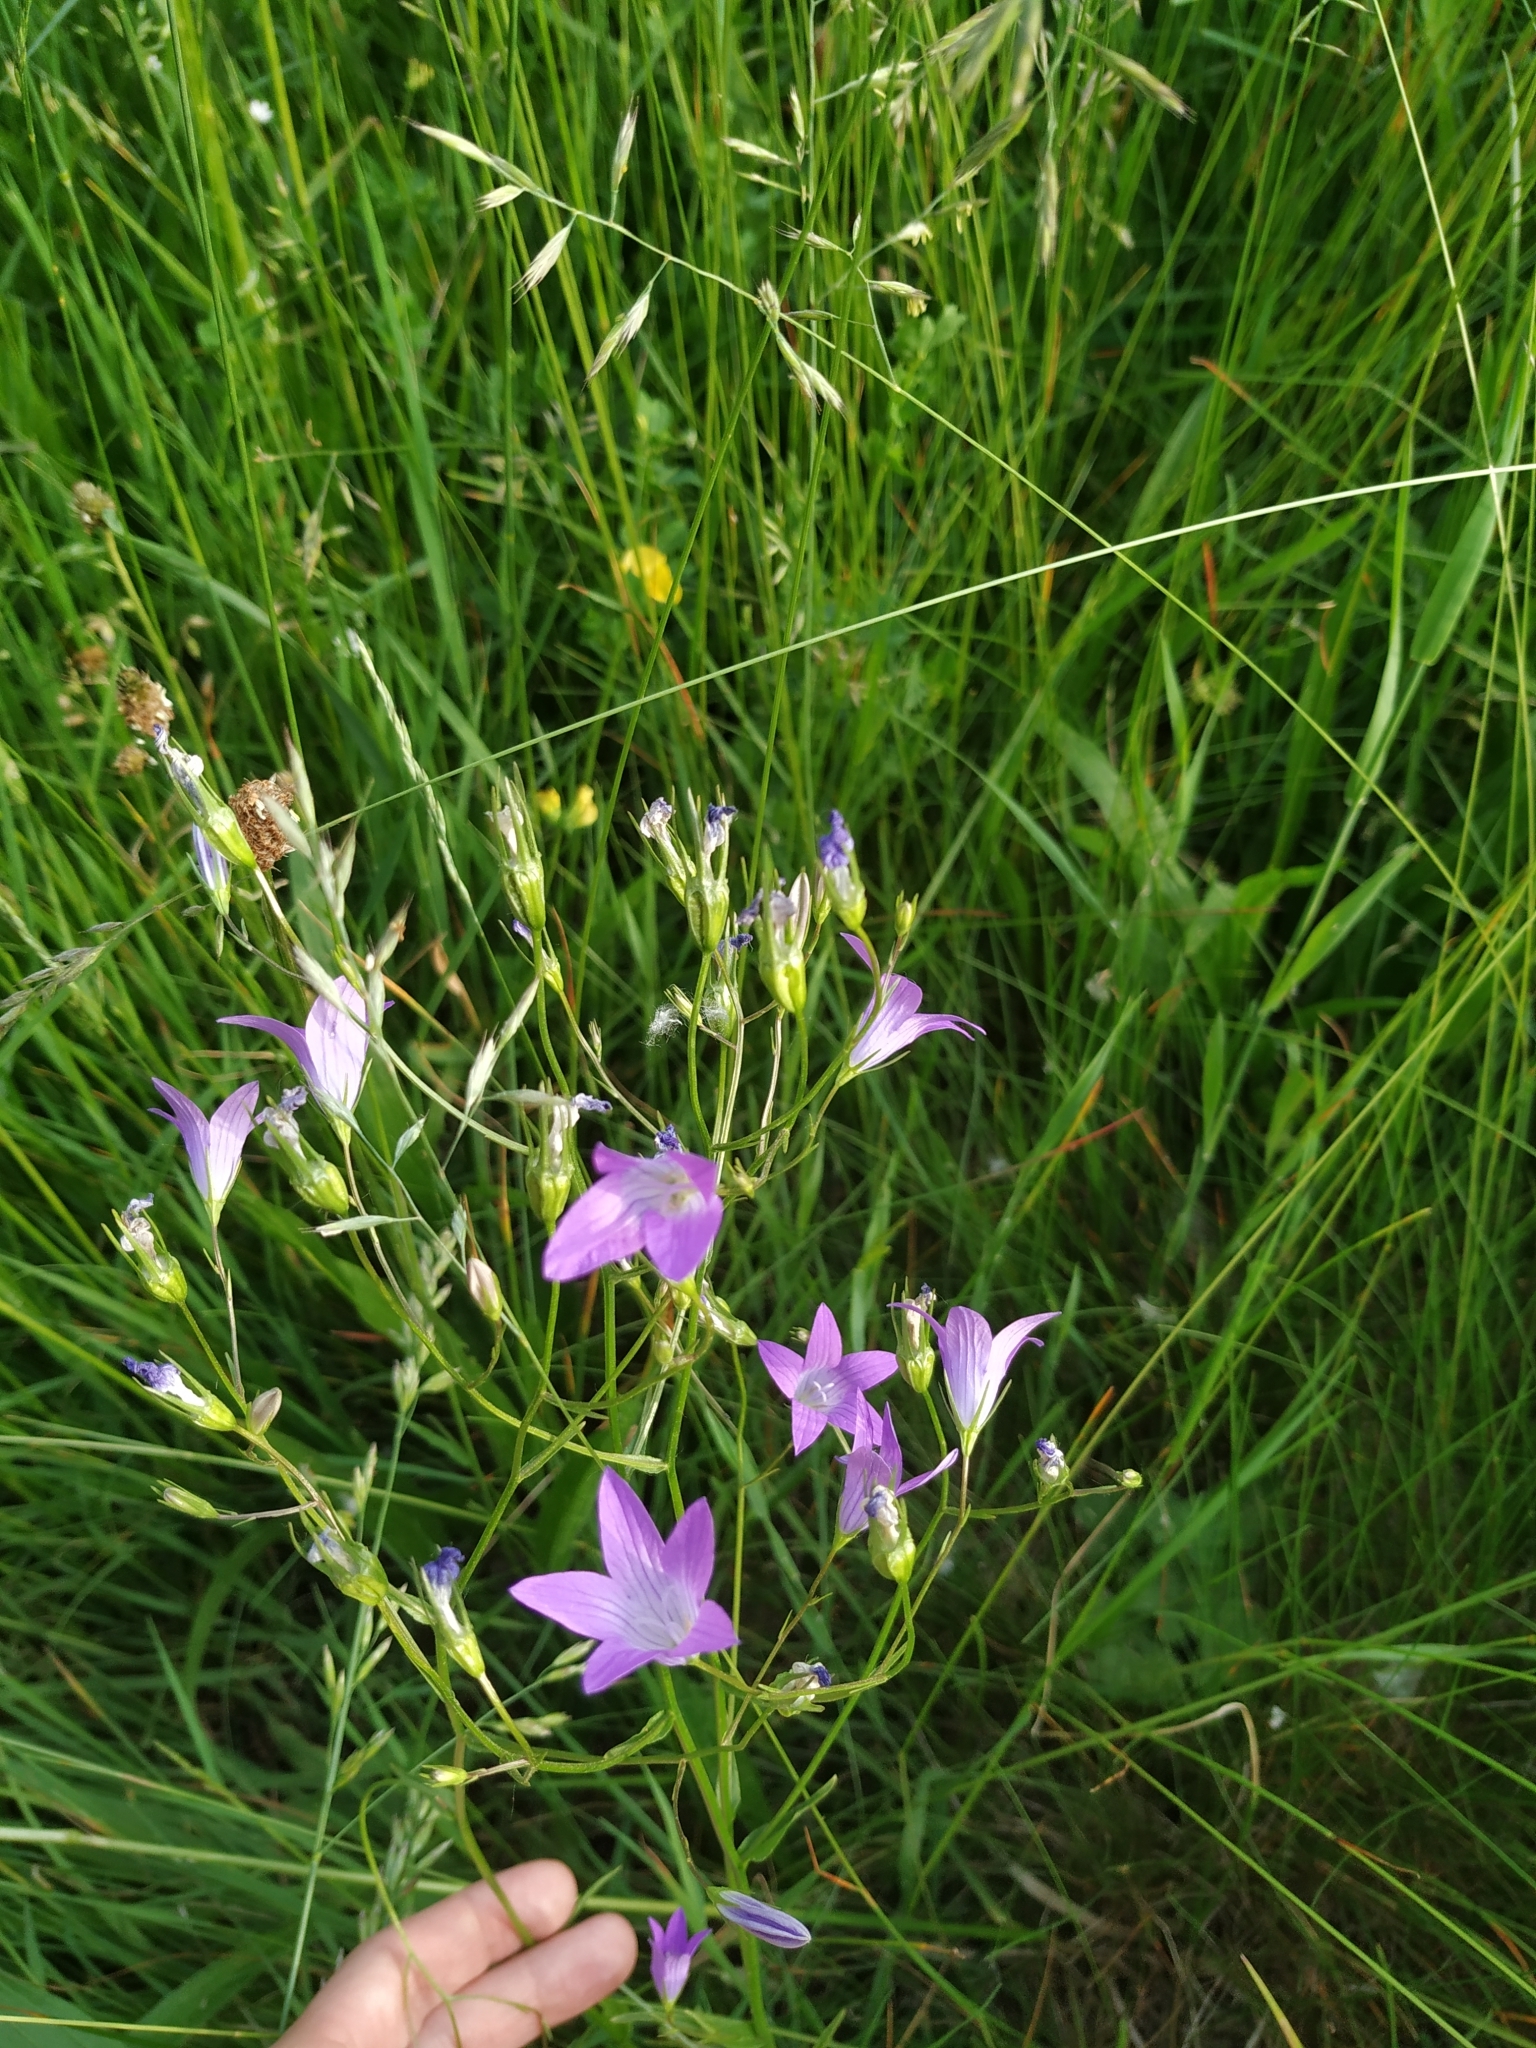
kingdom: Plantae
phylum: Tracheophyta
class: Magnoliopsida
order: Asterales
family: Campanulaceae
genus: Campanula
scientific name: Campanula patula
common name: Spreading bellflower
